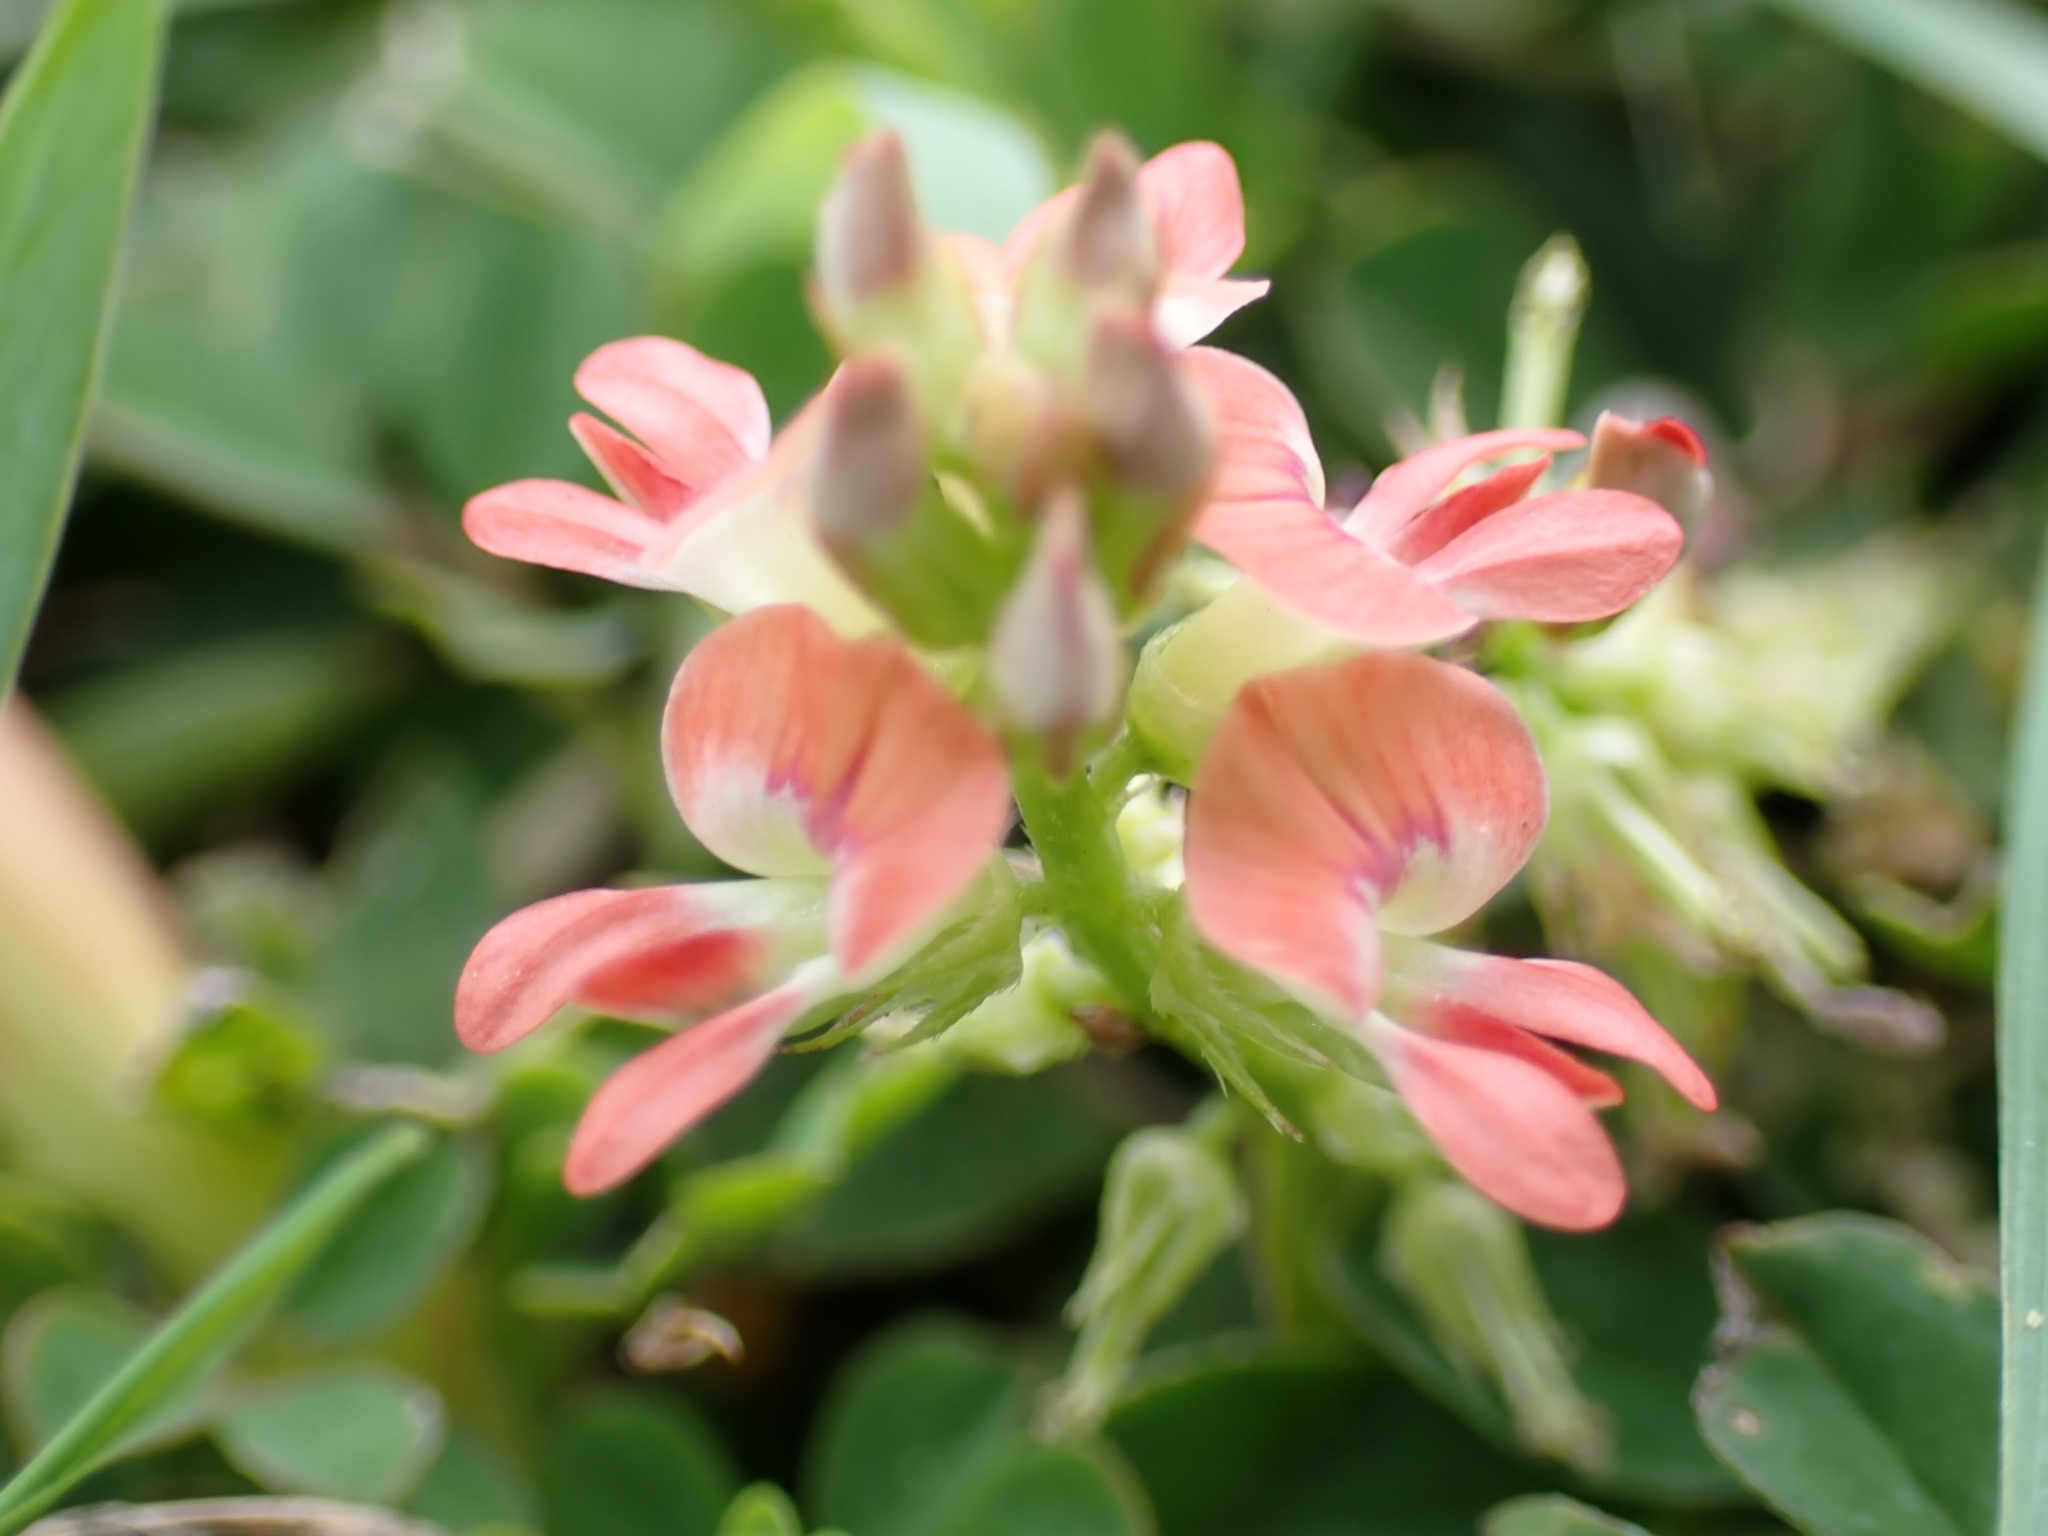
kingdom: Plantae
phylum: Tracheophyta
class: Magnoliopsida
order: Fabales
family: Fabaceae
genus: Indigofera
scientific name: Indigofera spicata
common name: Creeping indigo
